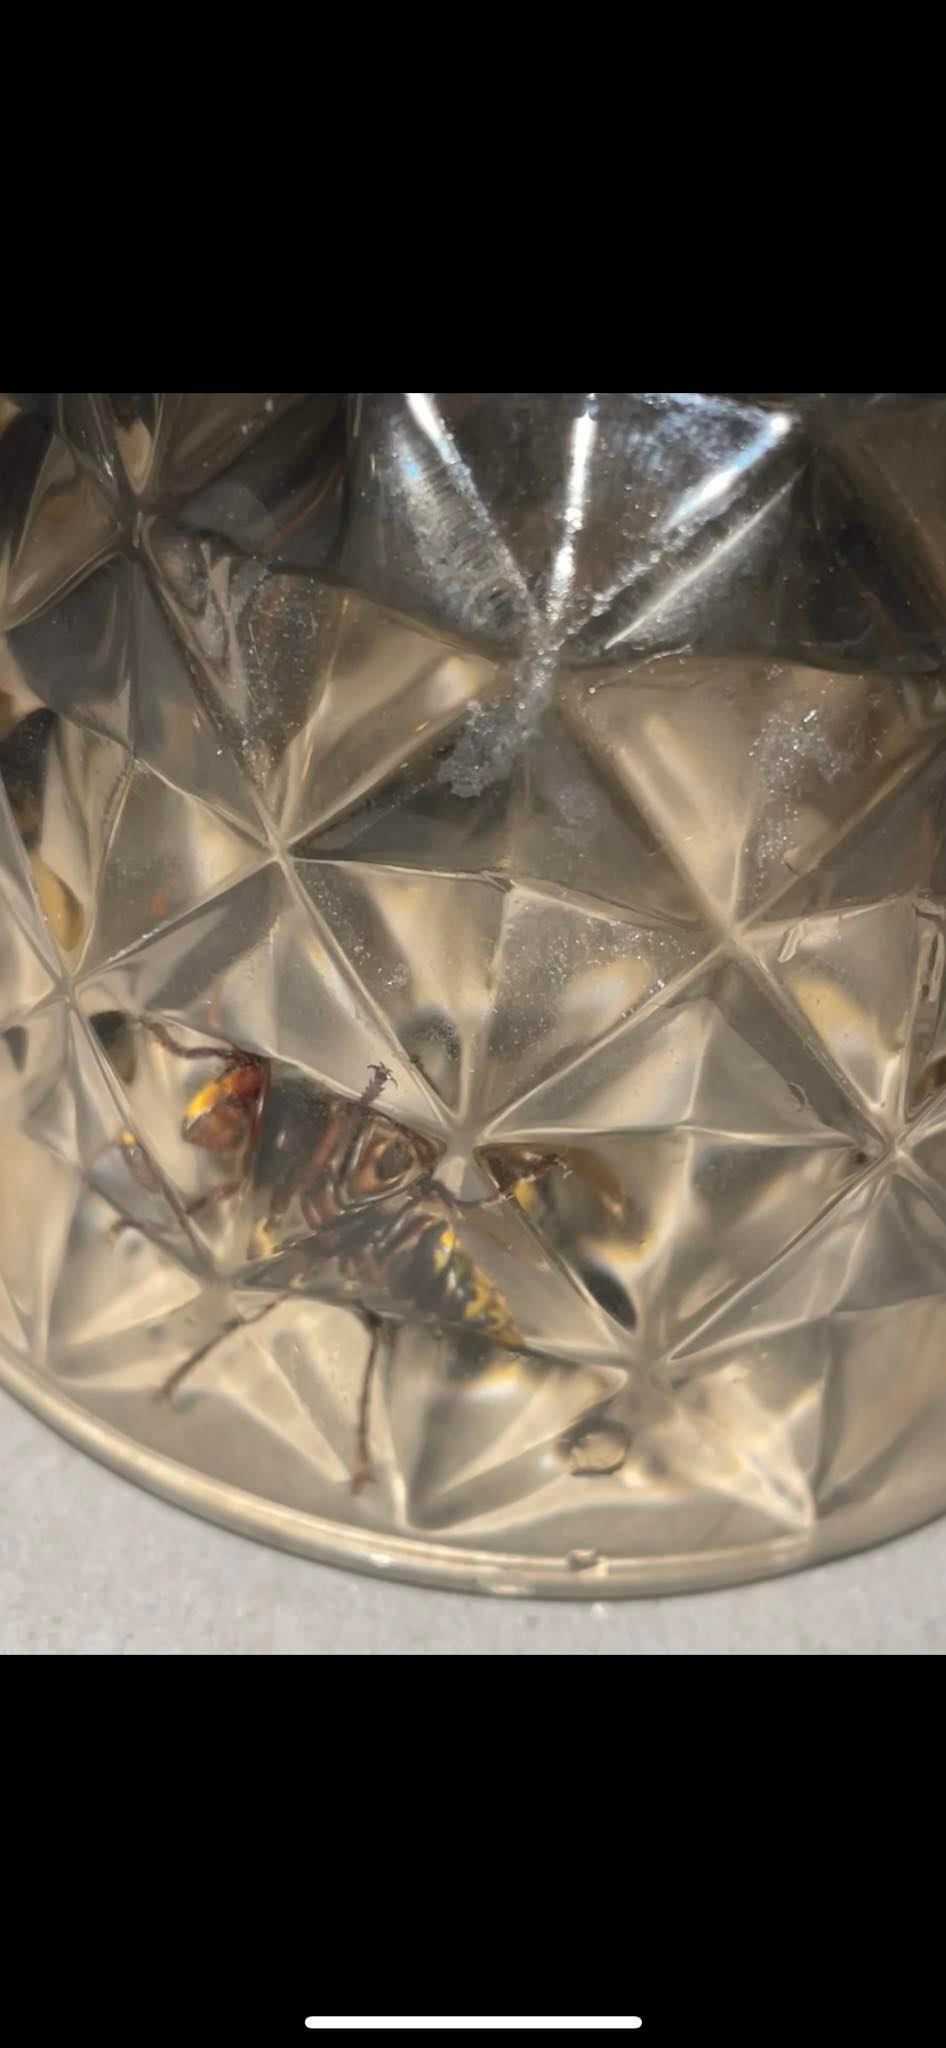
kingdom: Animalia
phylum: Arthropoda
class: Insecta
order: Hymenoptera
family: Vespidae
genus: Vespa
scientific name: Vespa crabro
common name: Hornet
